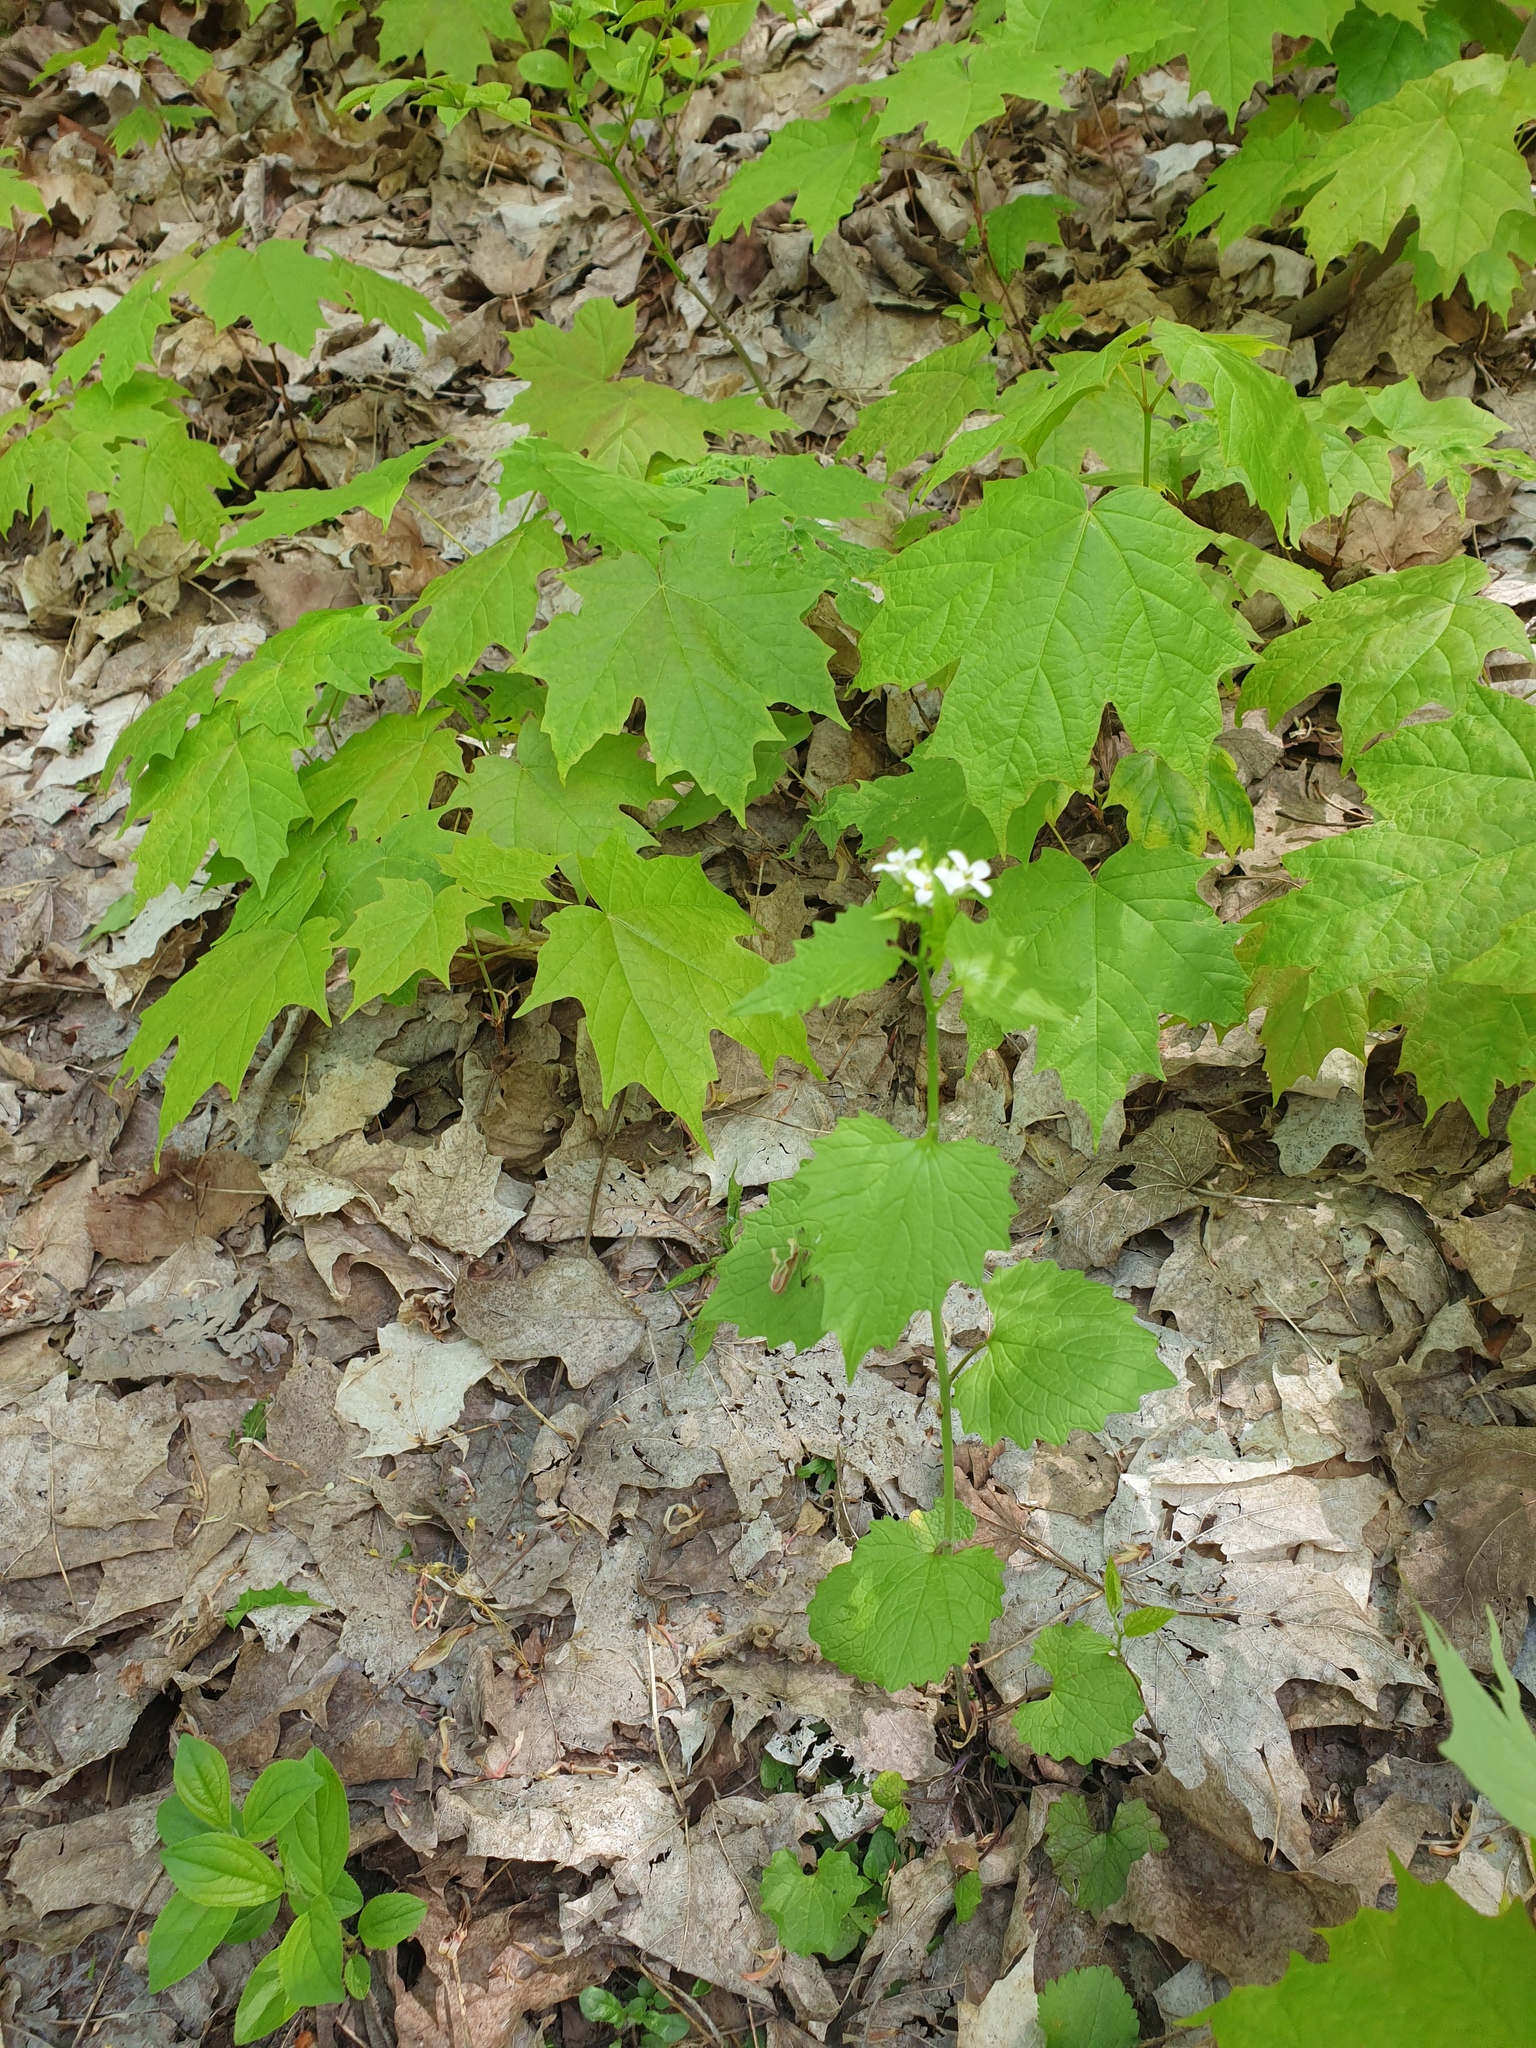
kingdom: Plantae
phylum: Tracheophyta
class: Magnoliopsida
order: Brassicales
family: Brassicaceae
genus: Alliaria
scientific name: Alliaria petiolata
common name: Garlic mustard
